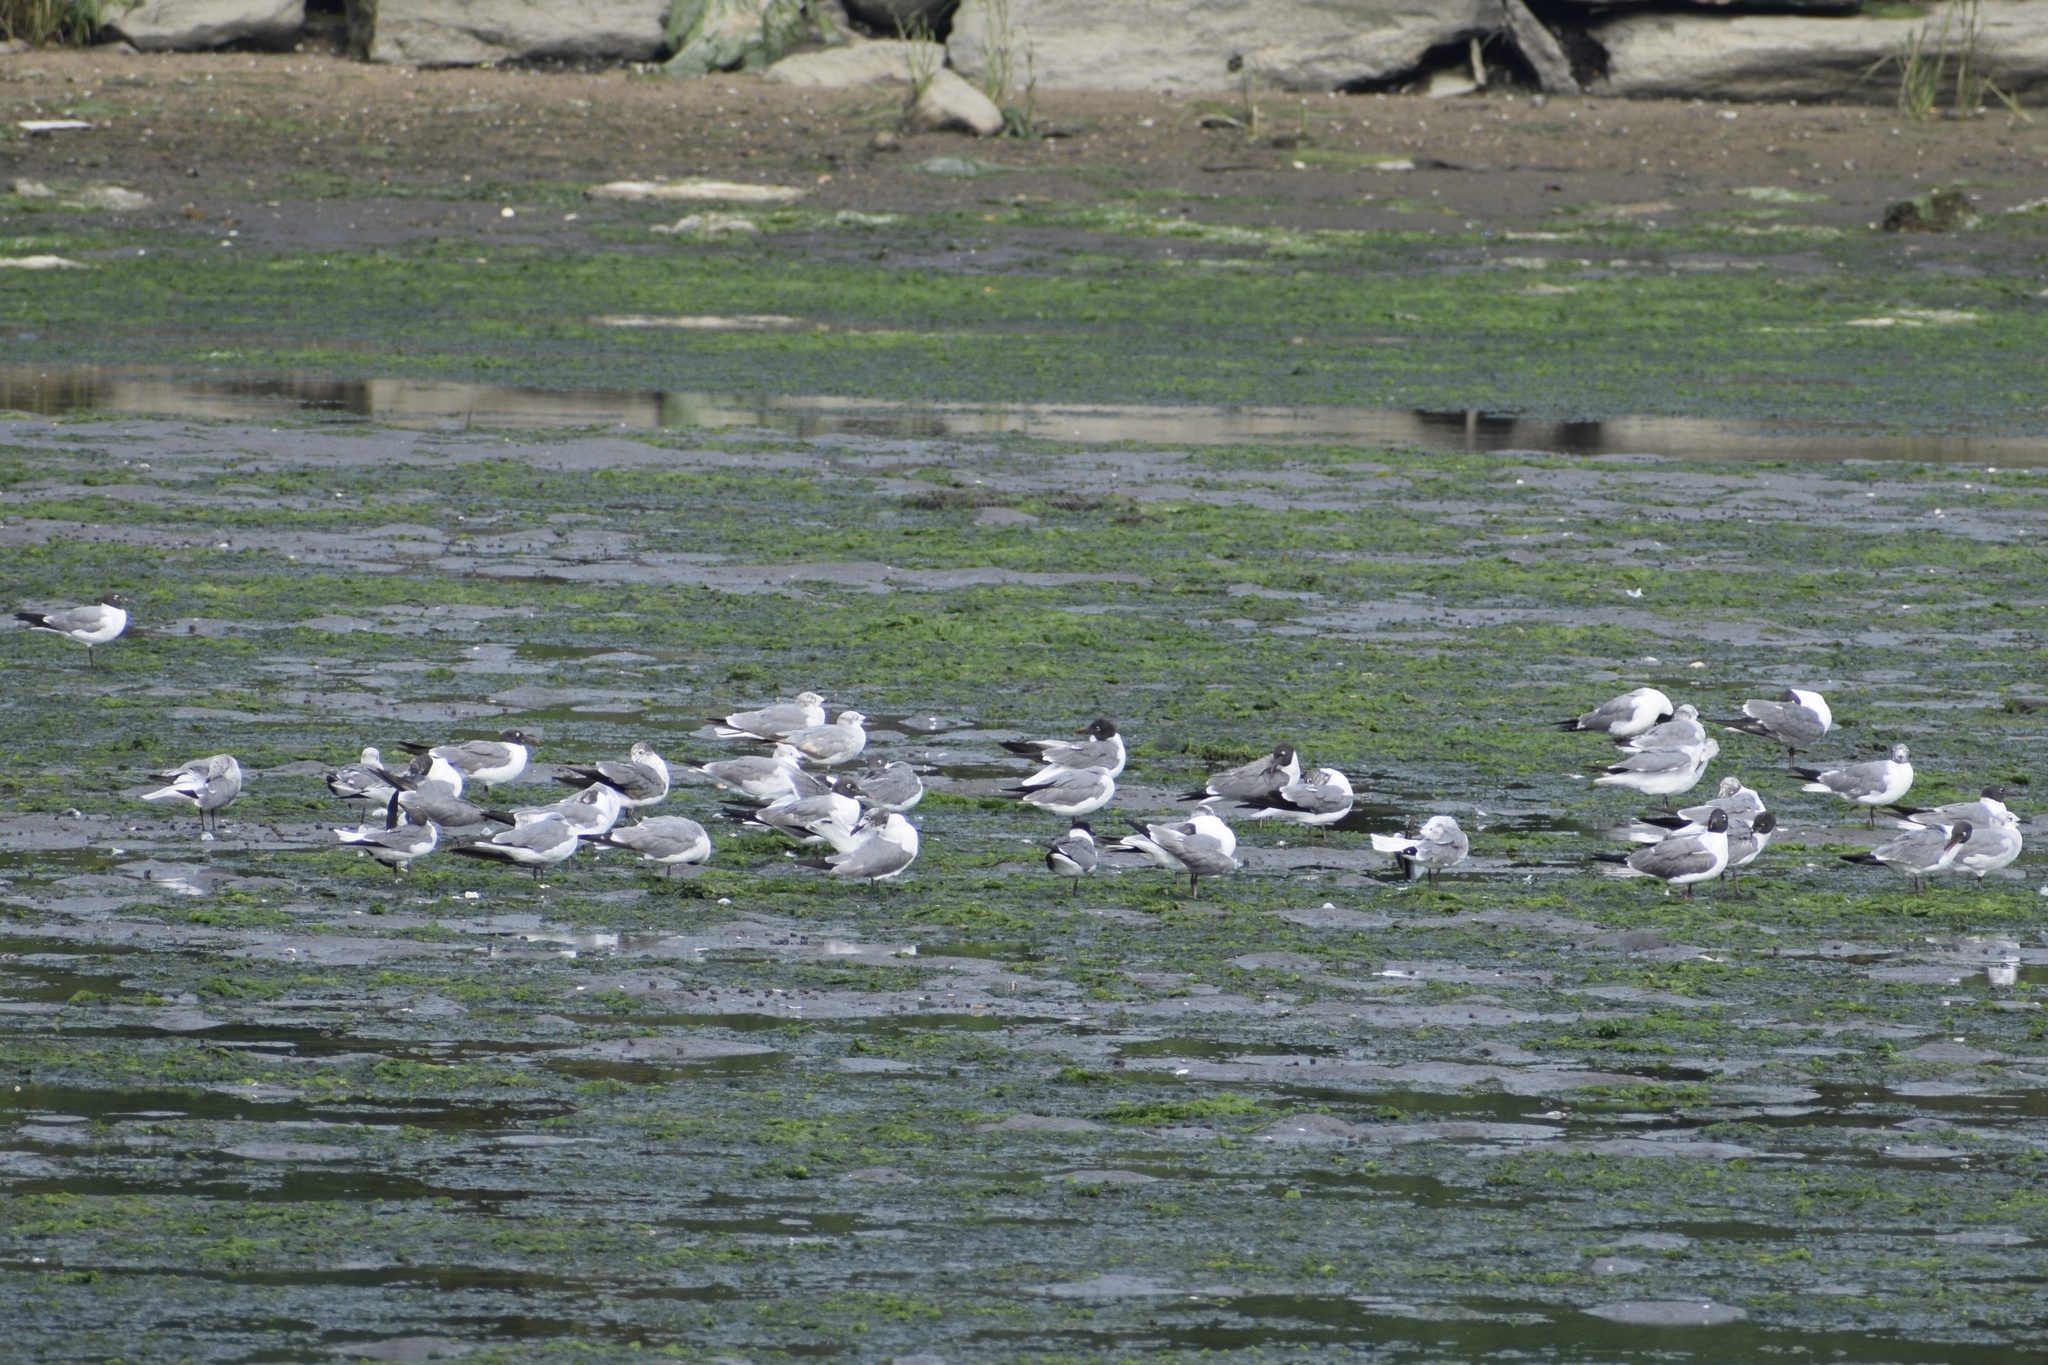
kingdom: Animalia
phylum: Chordata
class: Aves
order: Charadriiformes
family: Laridae
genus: Leucophaeus
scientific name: Leucophaeus atricilla
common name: Laughing gull
